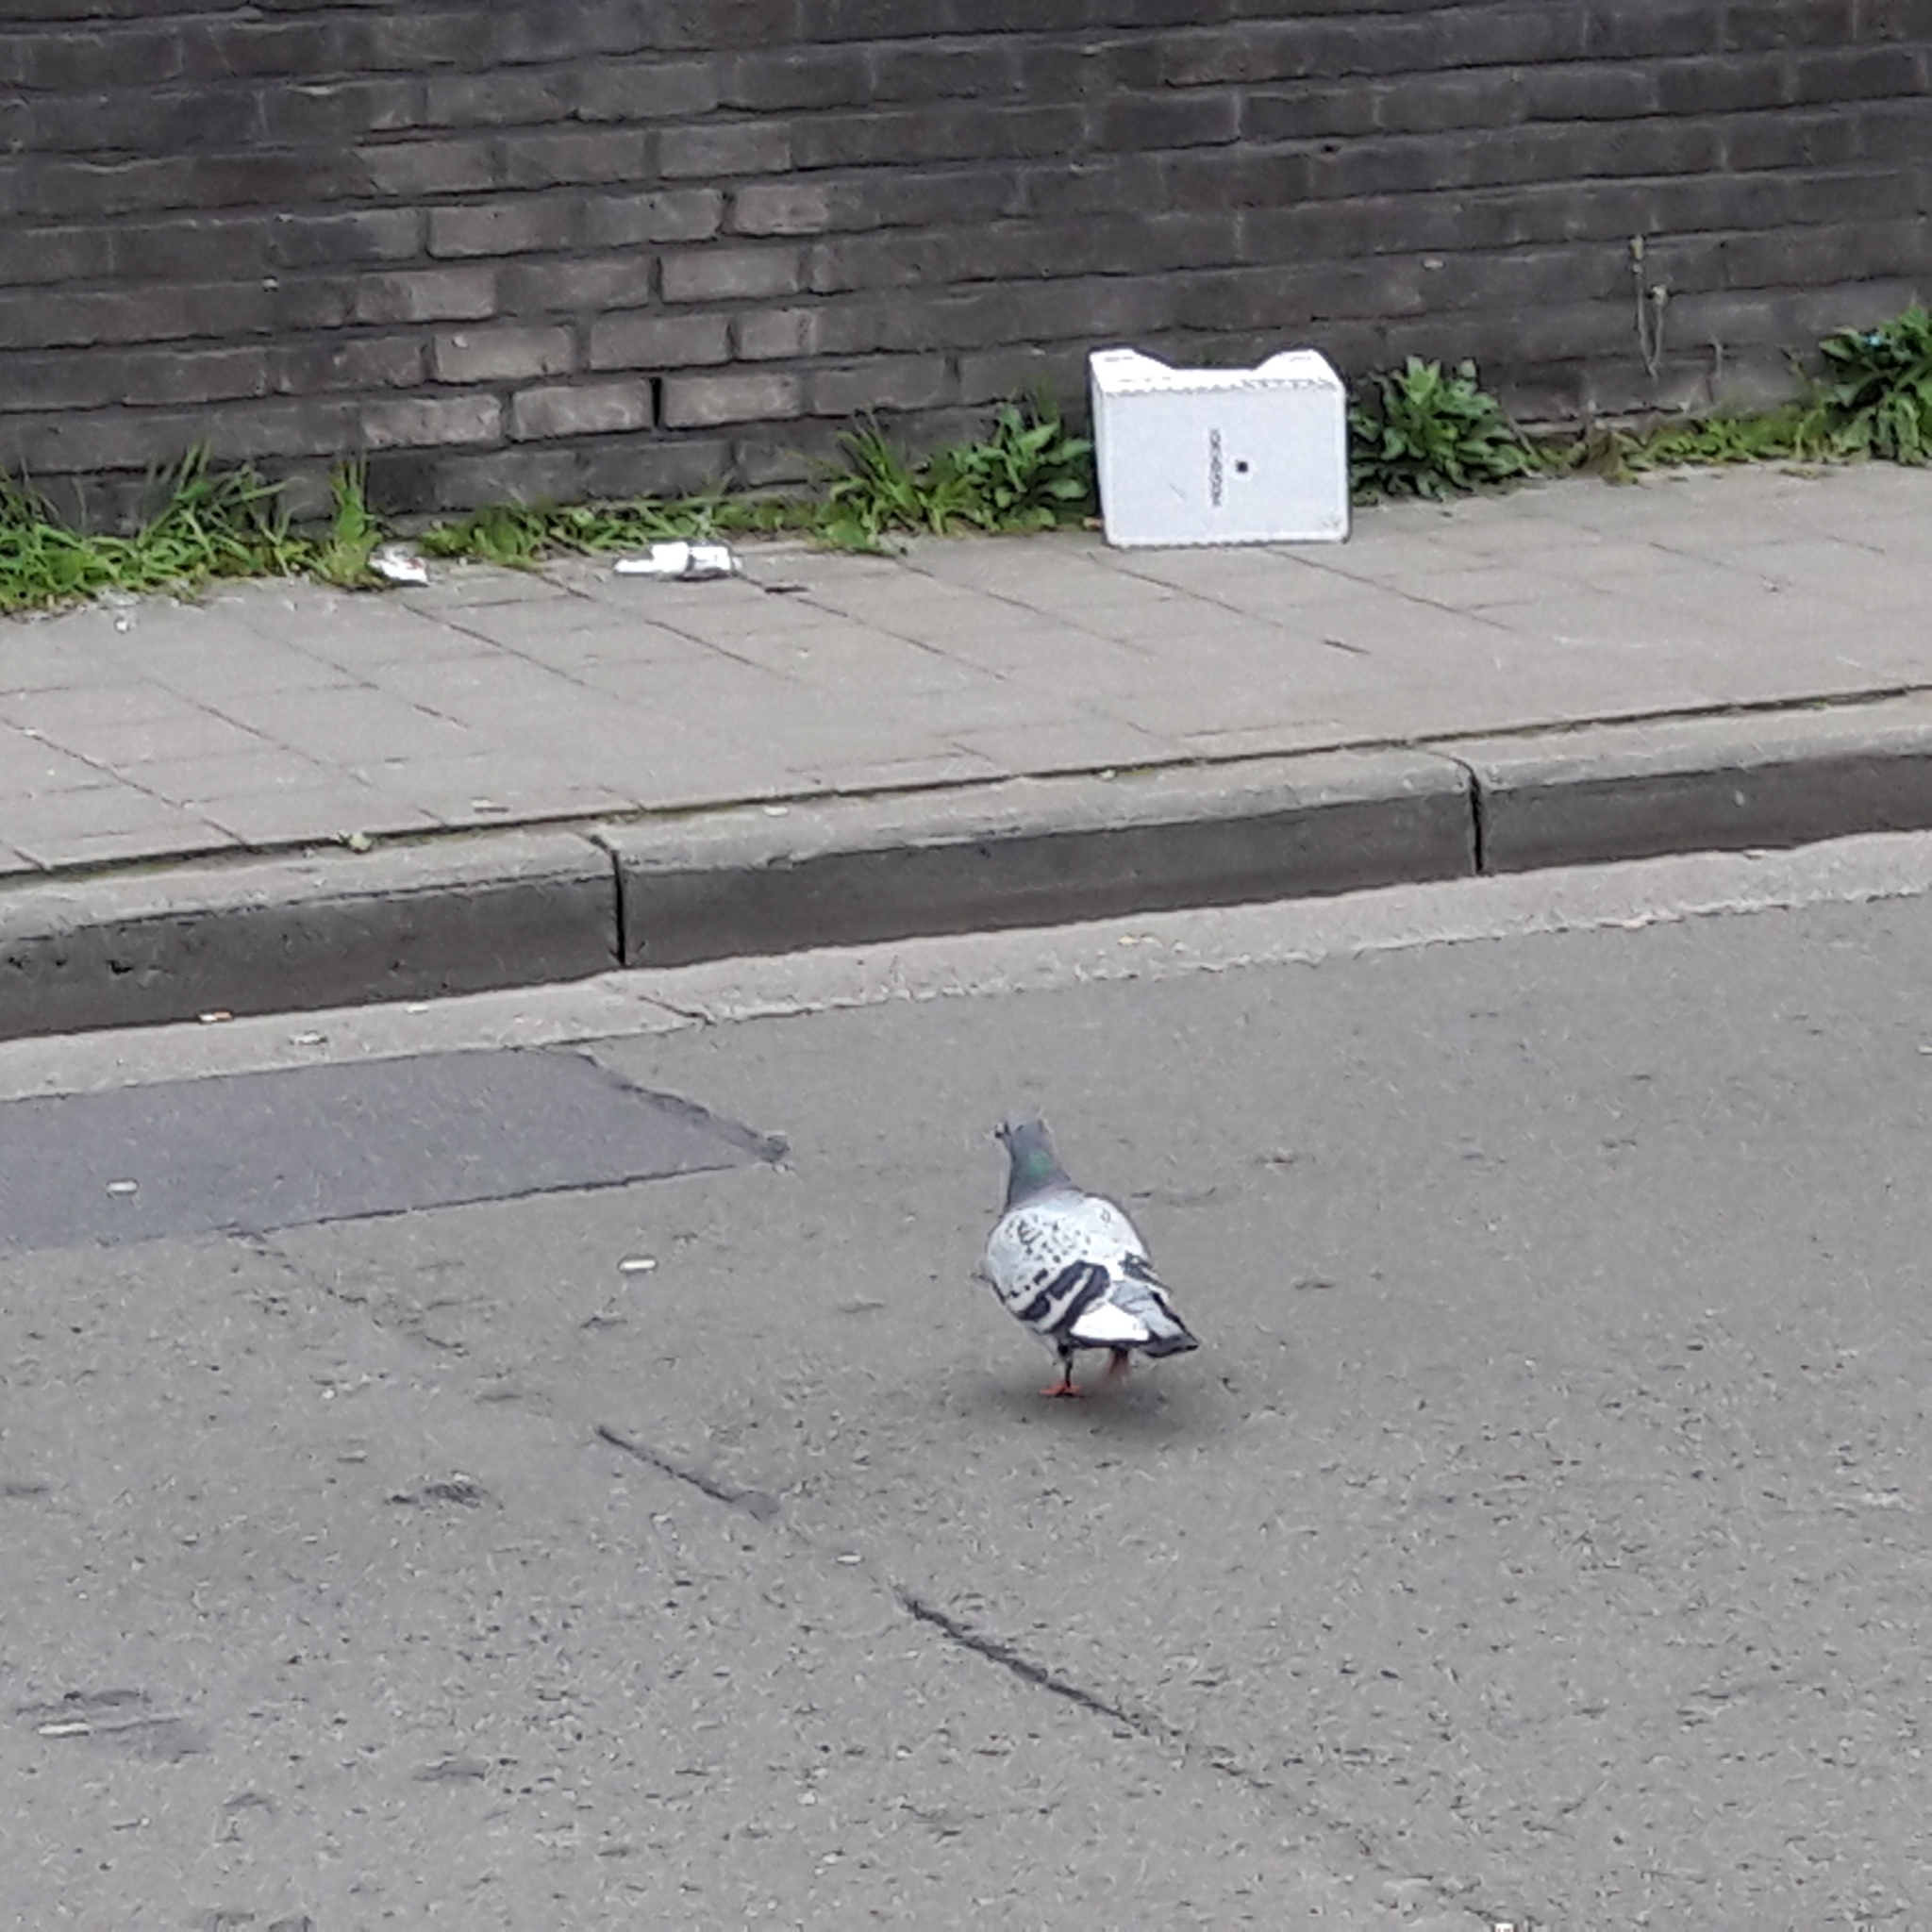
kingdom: Animalia
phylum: Chordata
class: Aves
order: Columbiformes
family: Columbidae
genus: Columba
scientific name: Columba livia
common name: Rock pigeon
